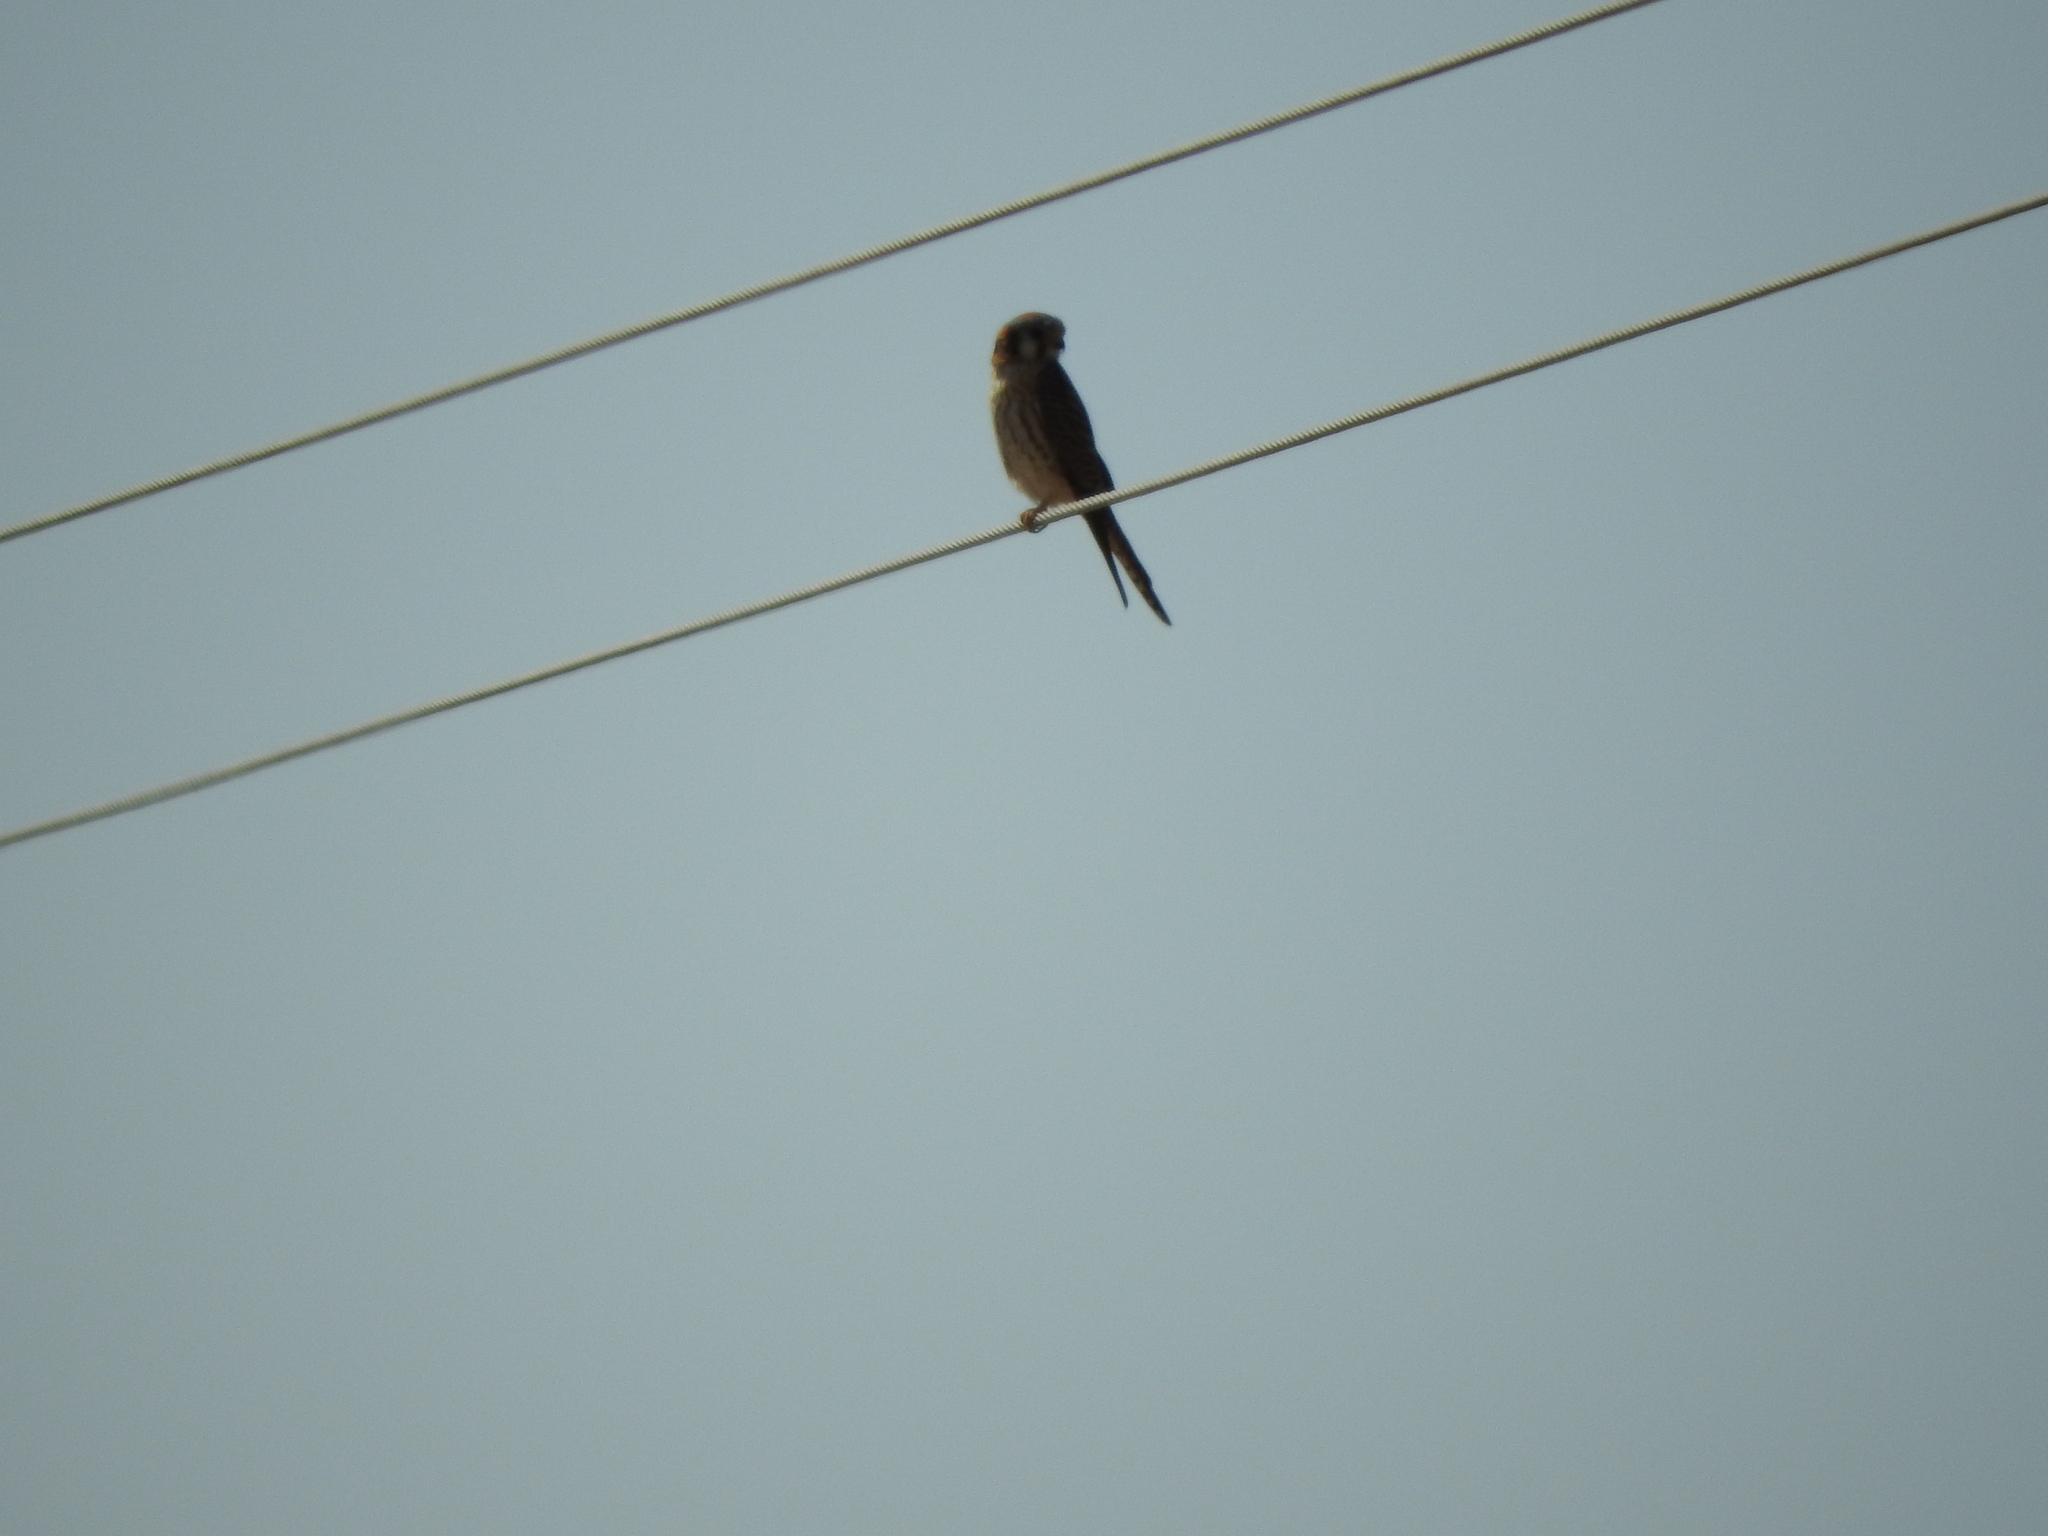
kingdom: Animalia
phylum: Chordata
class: Aves
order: Falconiformes
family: Falconidae
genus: Falco
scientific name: Falco sparverius
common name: American kestrel
